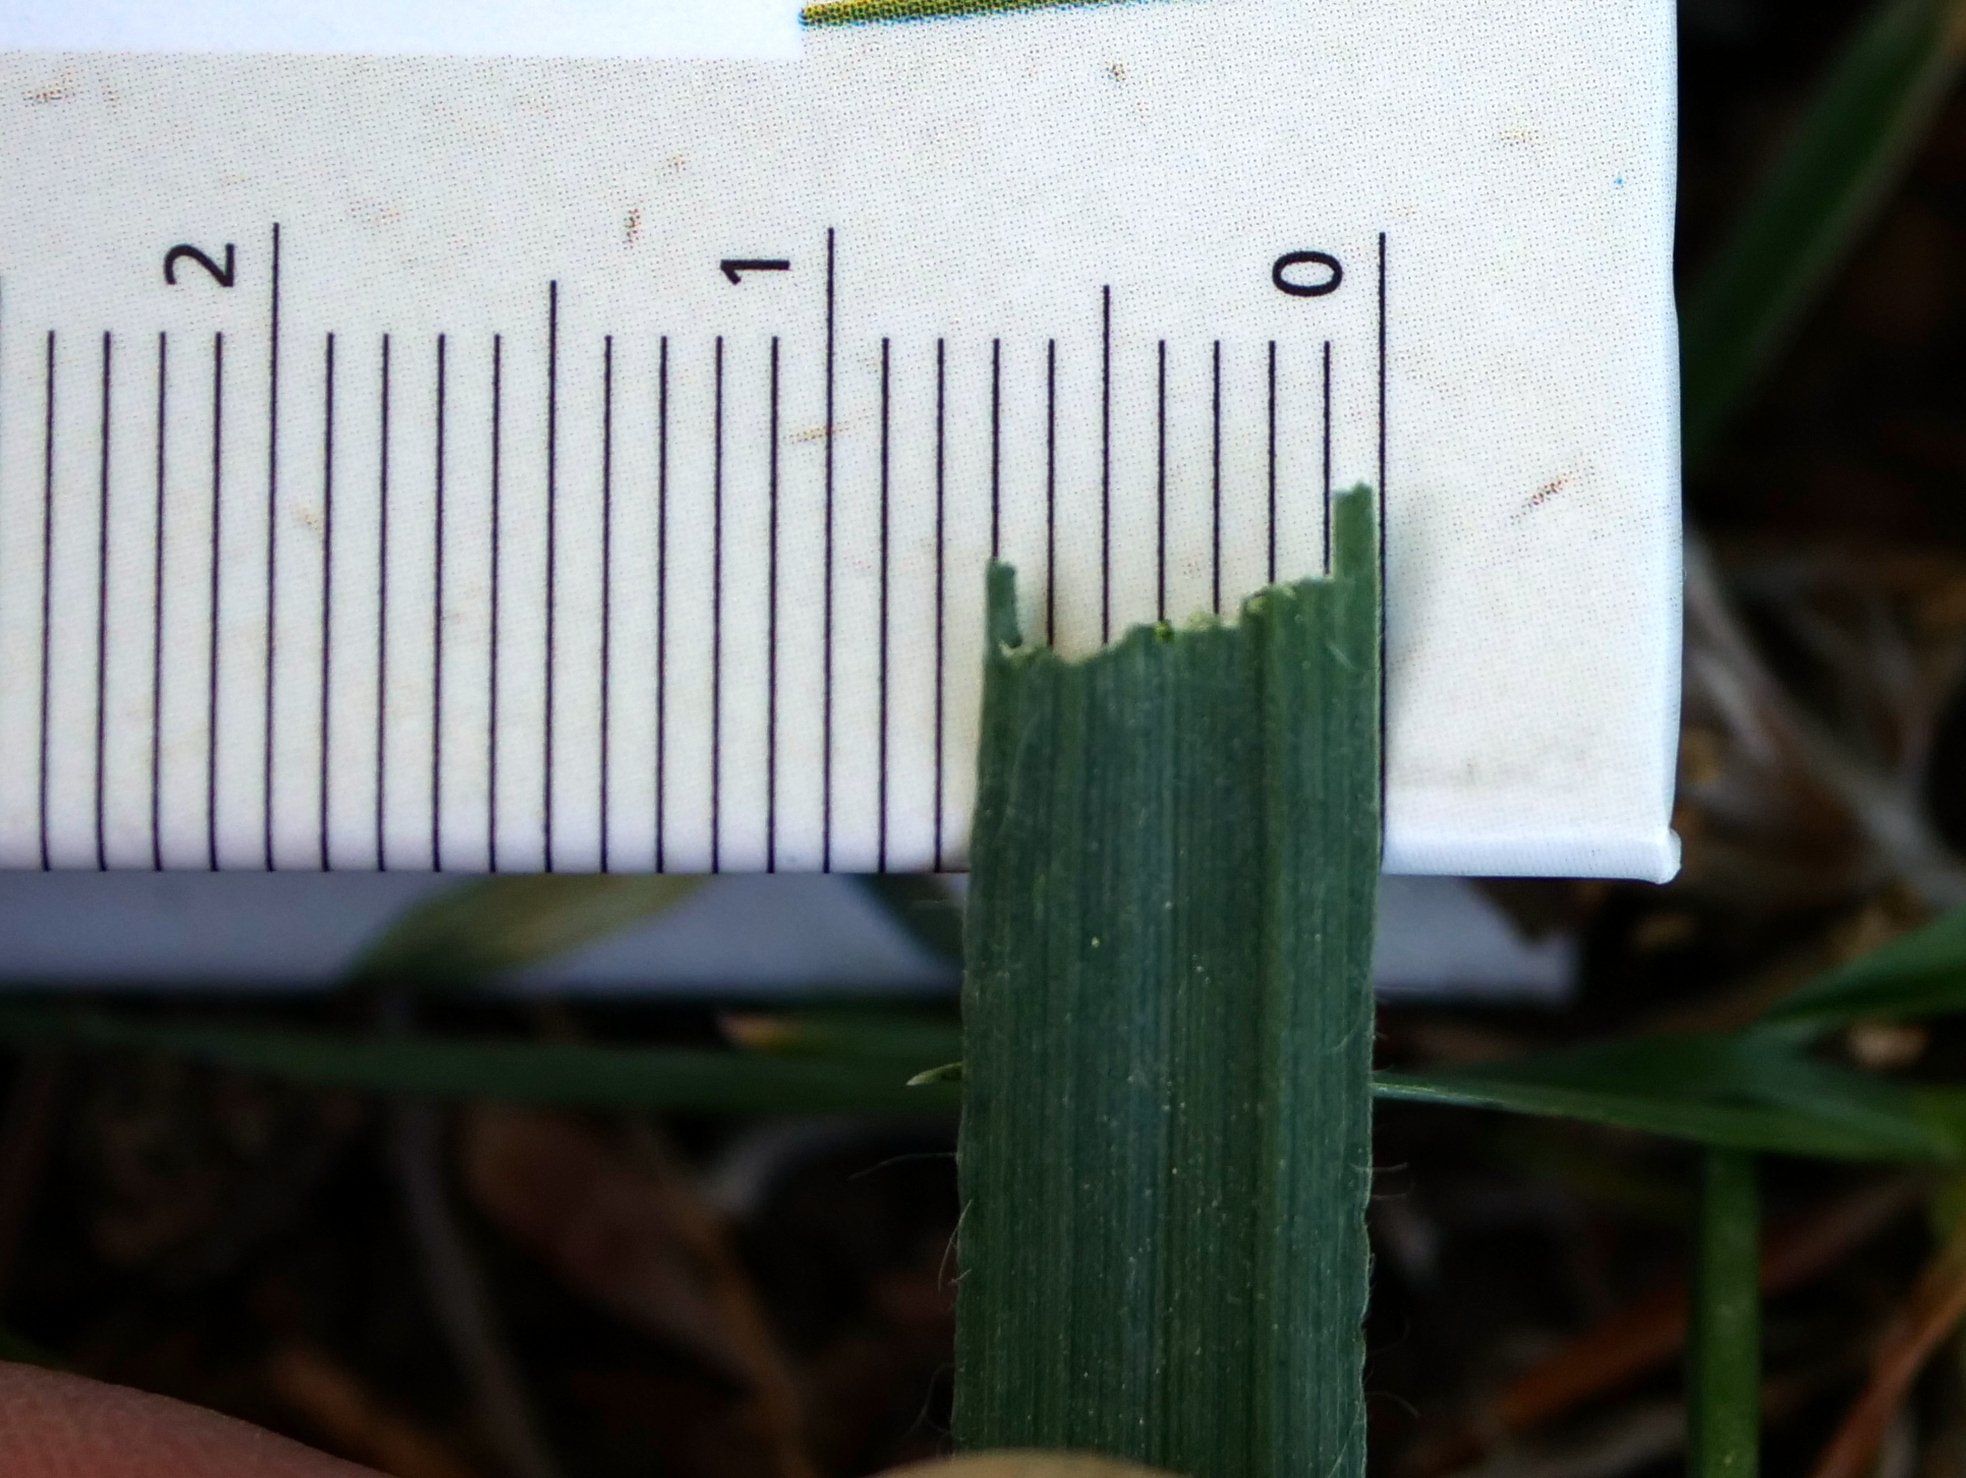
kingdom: Plantae
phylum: Tracheophyta
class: Liliopsida
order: Poales
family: Poaceae
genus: Bromus
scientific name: Bromus sterilis
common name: Poverty brome
